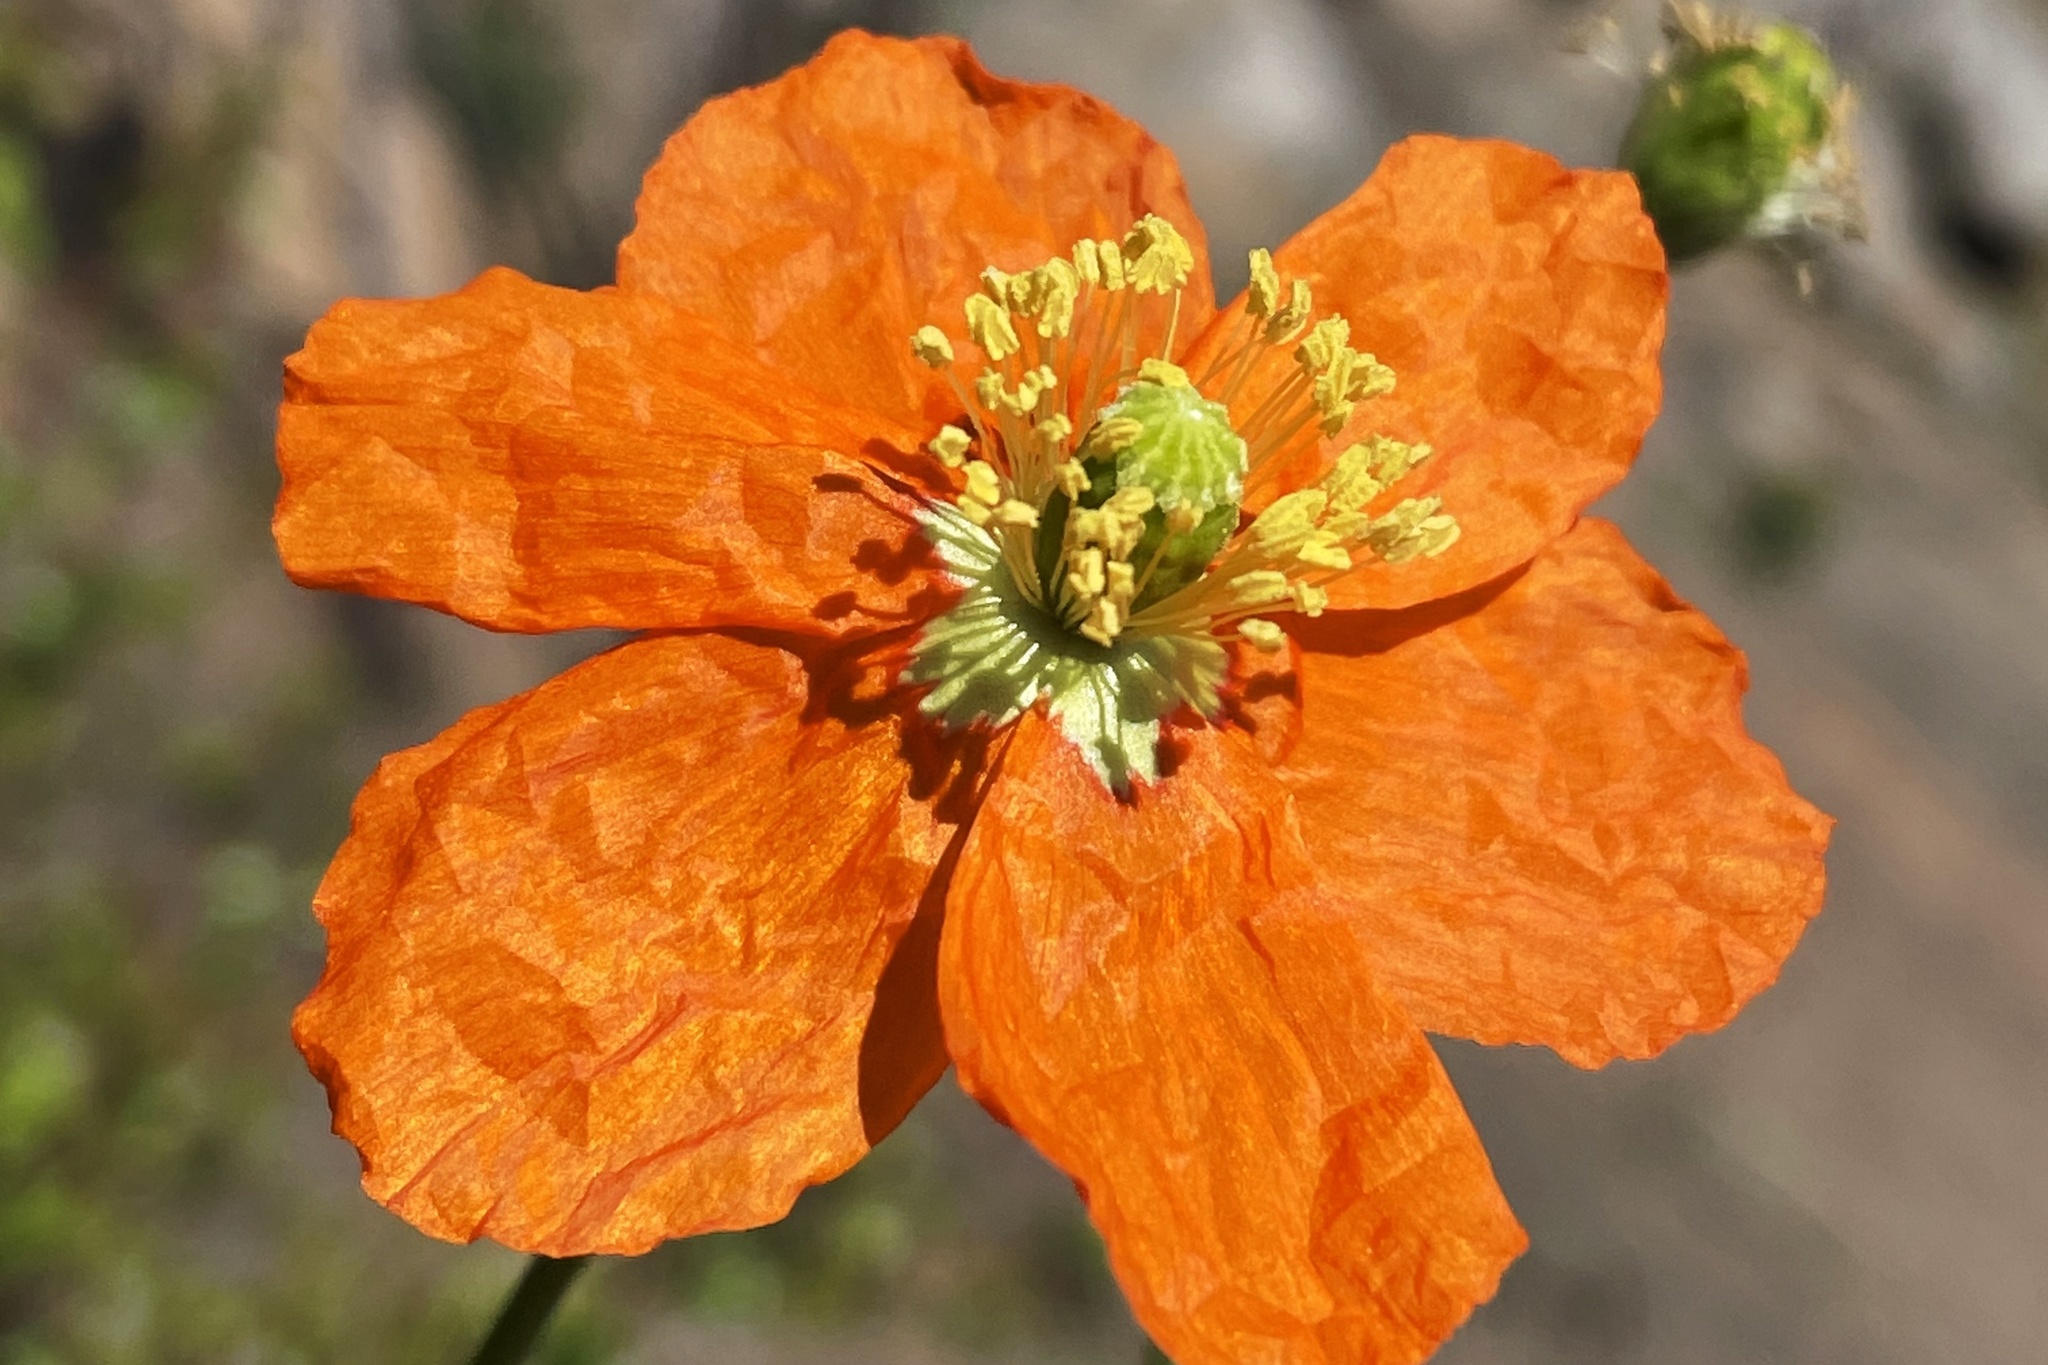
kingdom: Plantae
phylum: Tracheophyta
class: Magnoliopsida
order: Ranunculales
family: Papaveraceae
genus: Papaver
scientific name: Papaver californicum
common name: Fire poppy
